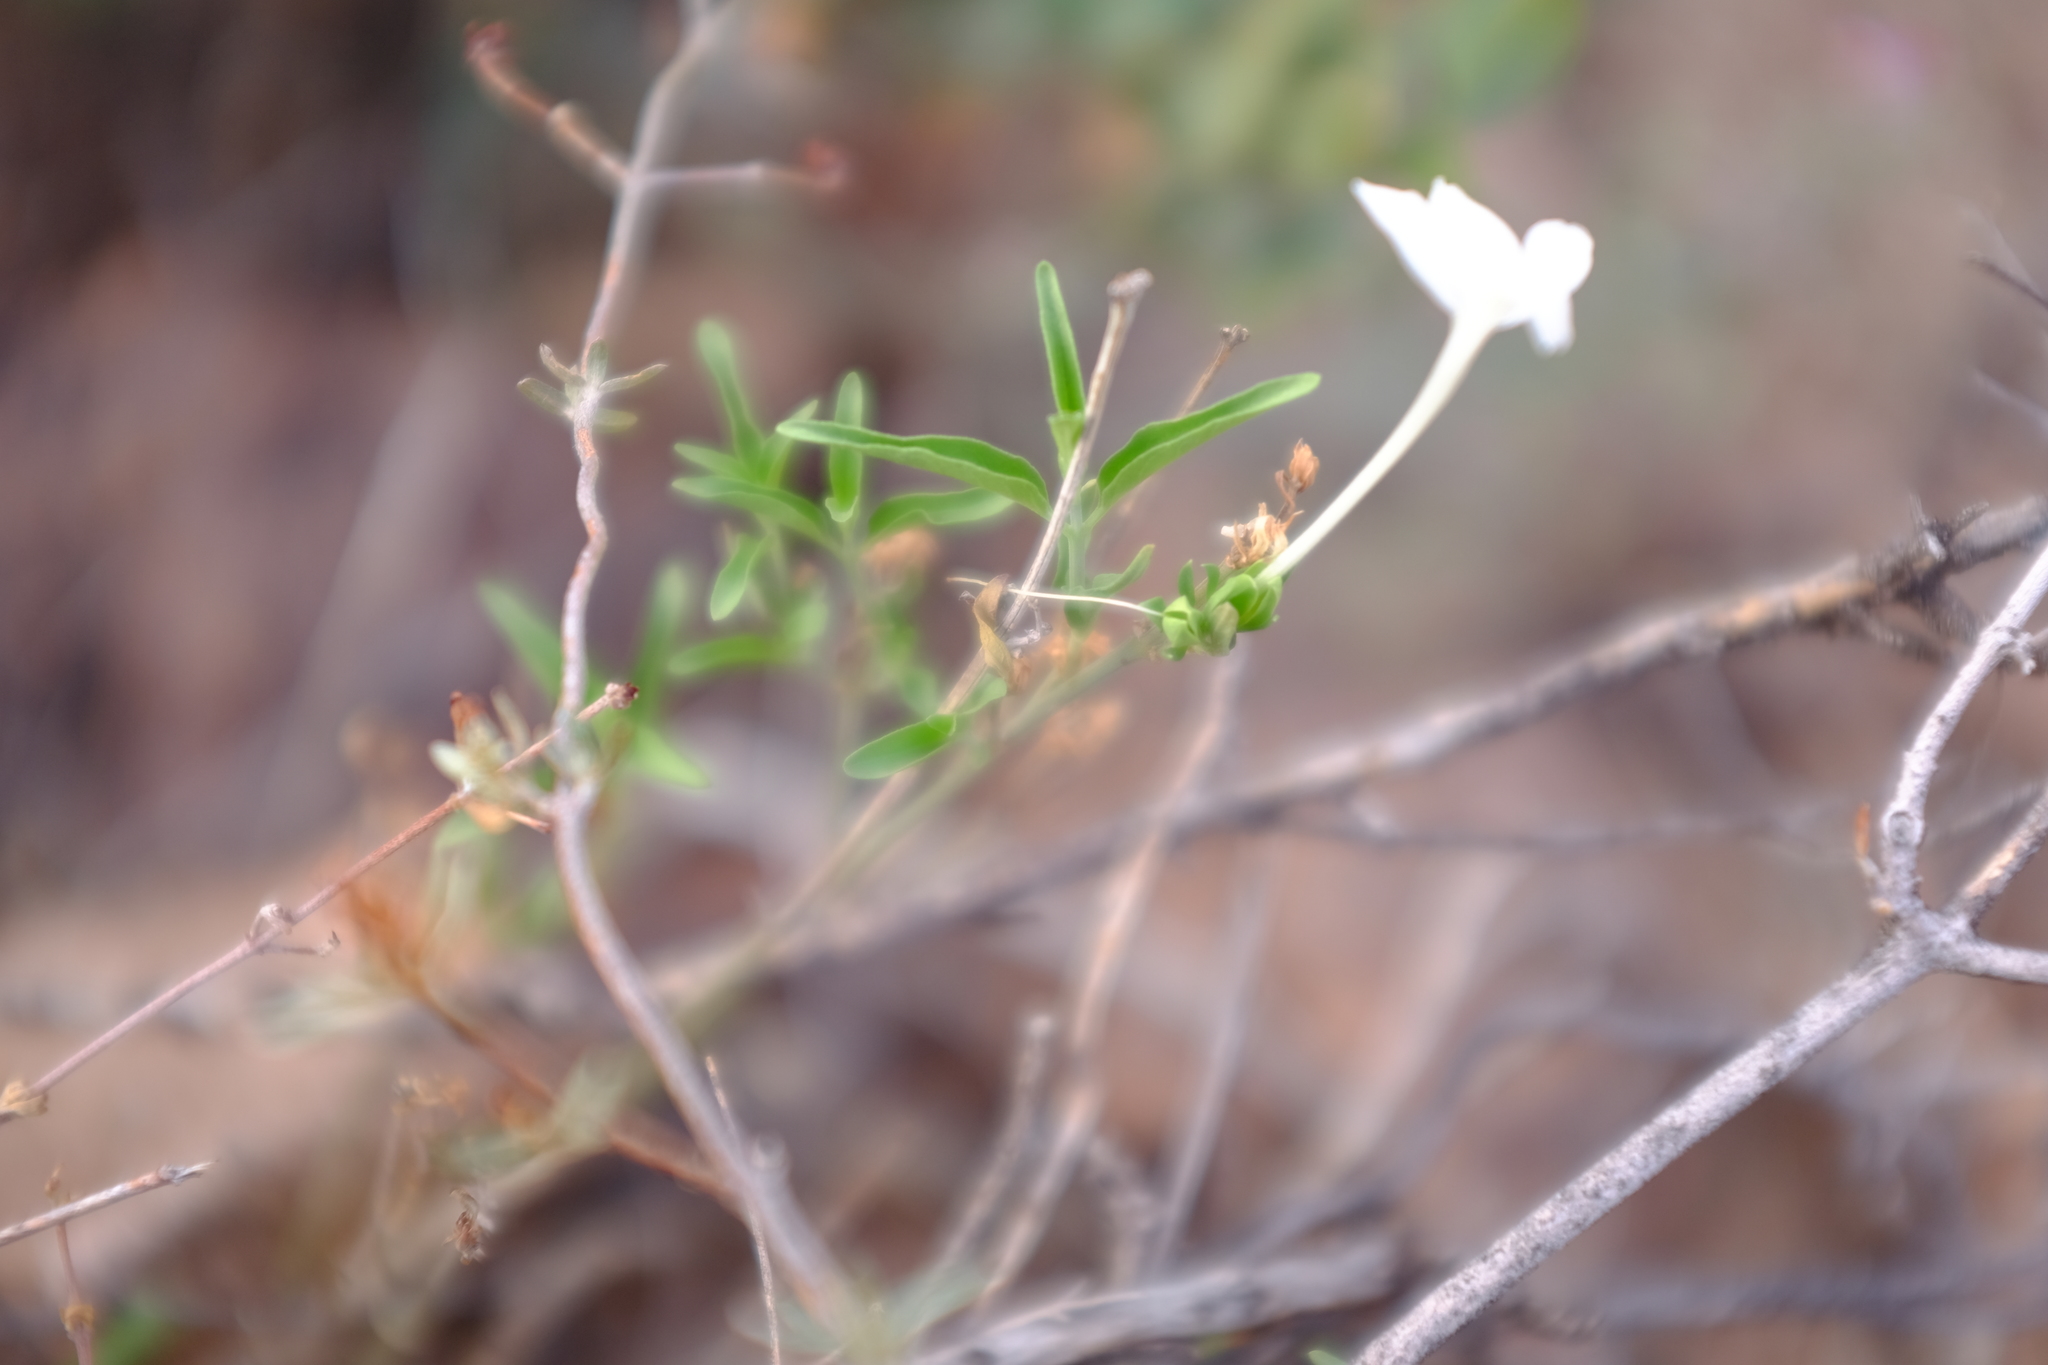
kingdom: Plantae
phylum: Tracheophyta
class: Magnoliopsida
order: Lamiales
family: Acanthaceae
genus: Justicia
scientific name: Justicia longii
